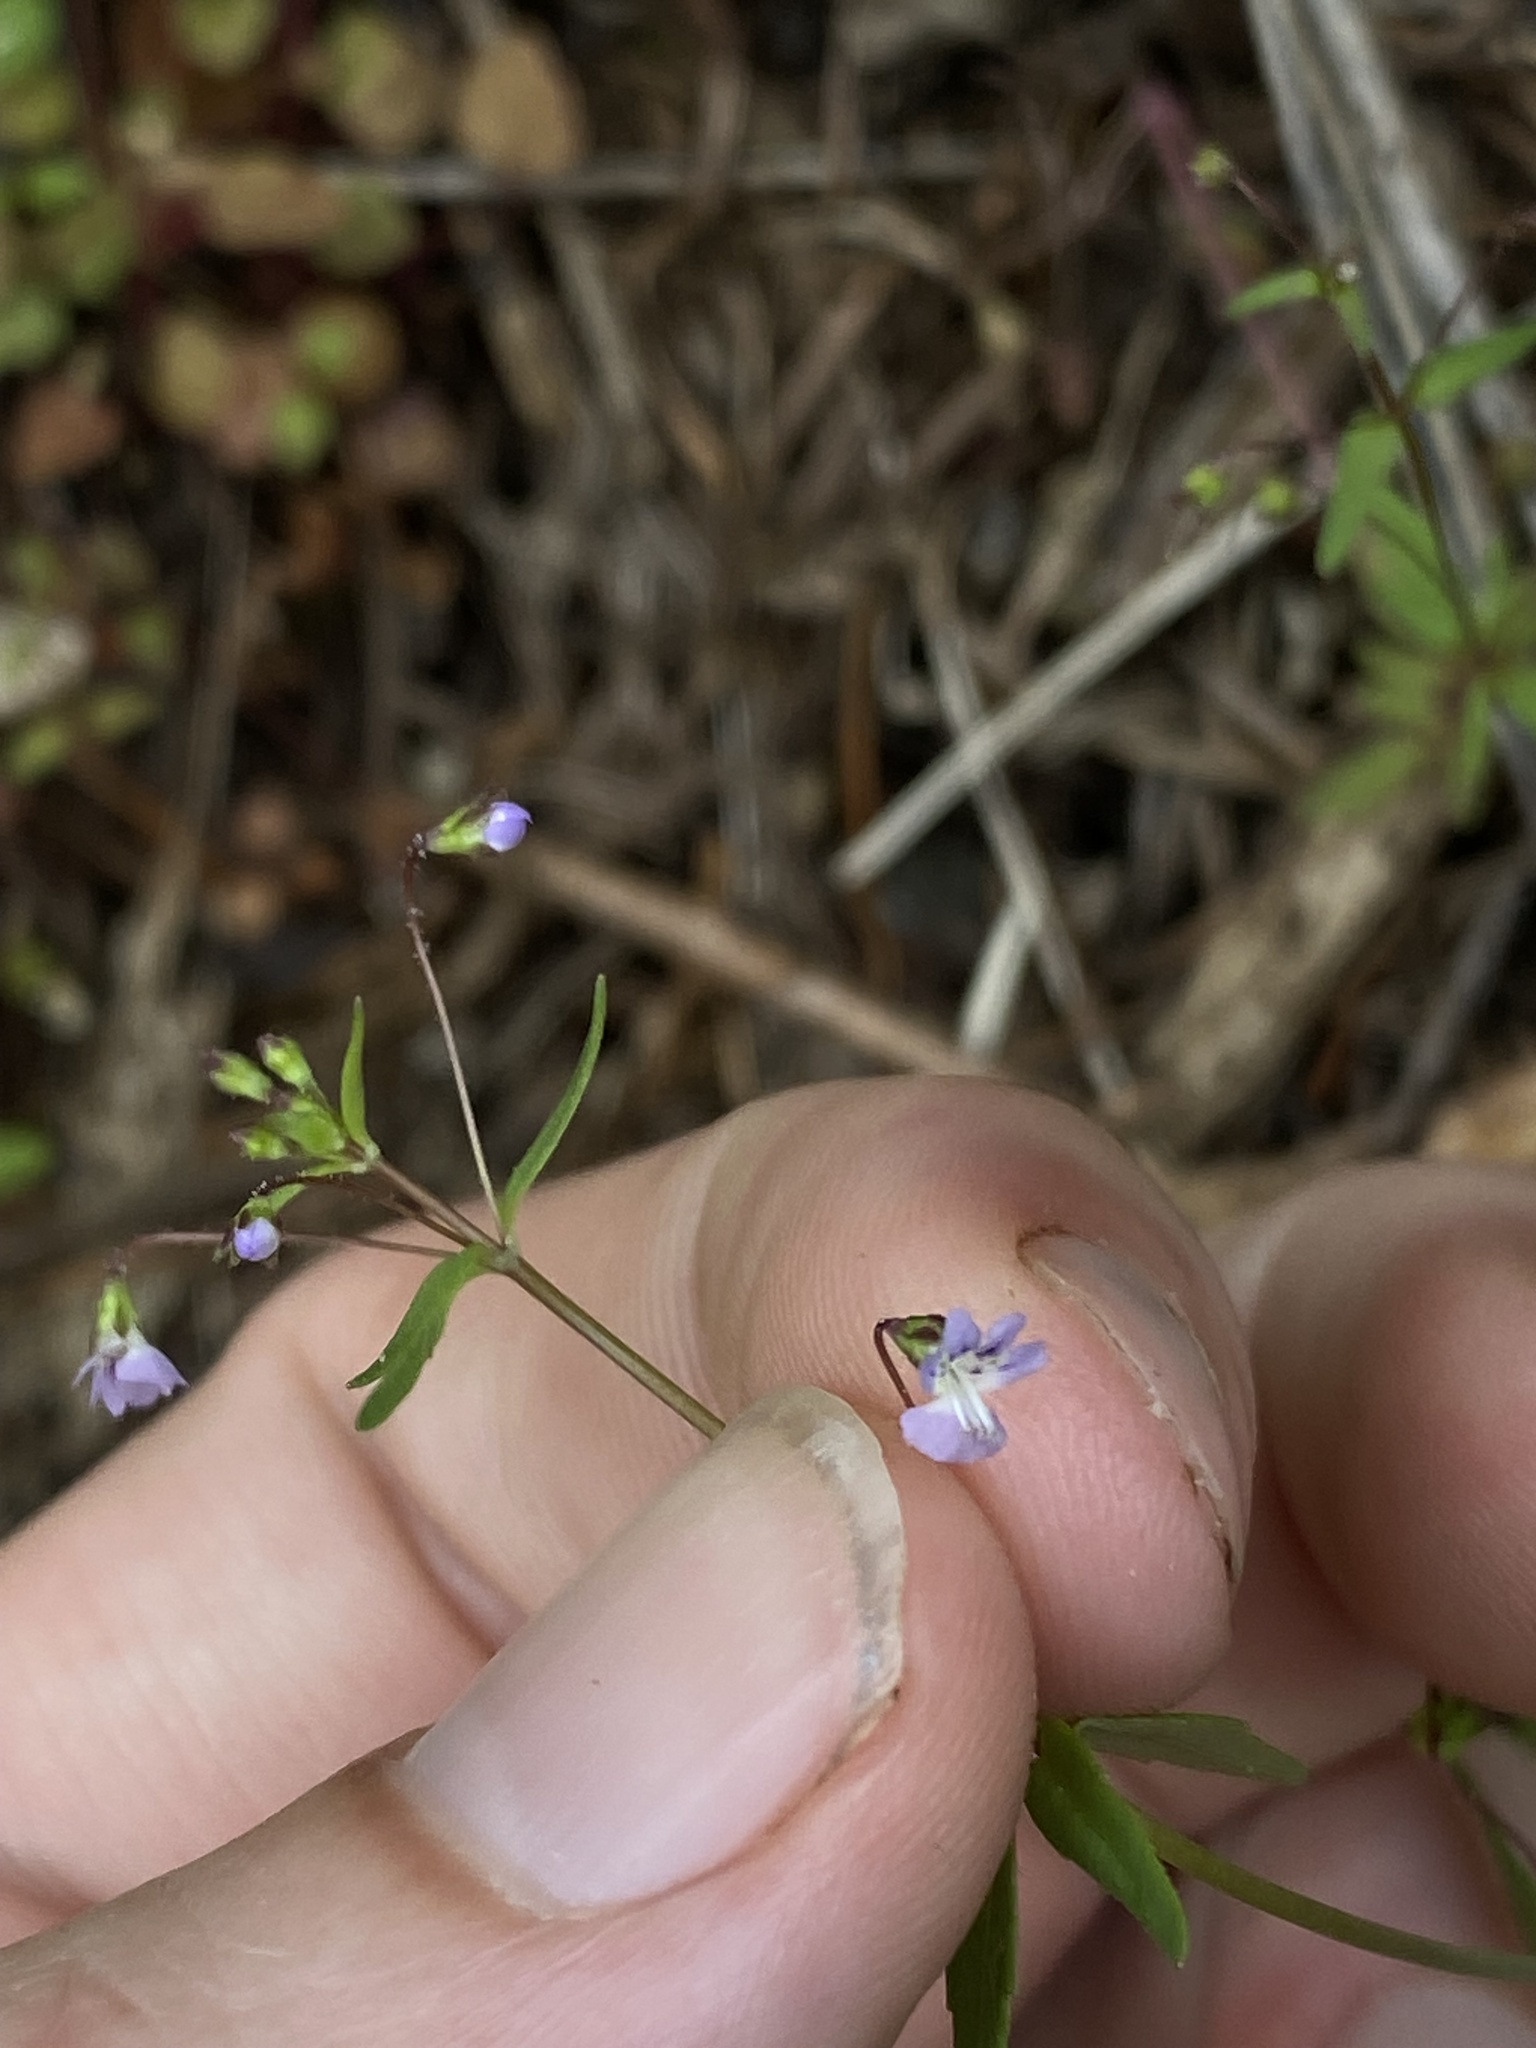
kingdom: Plantae
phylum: Tracheophyta
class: Magnoliopsida
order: Lamiales
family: Plantaginaceae
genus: Tonella
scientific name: Tonella tenella
